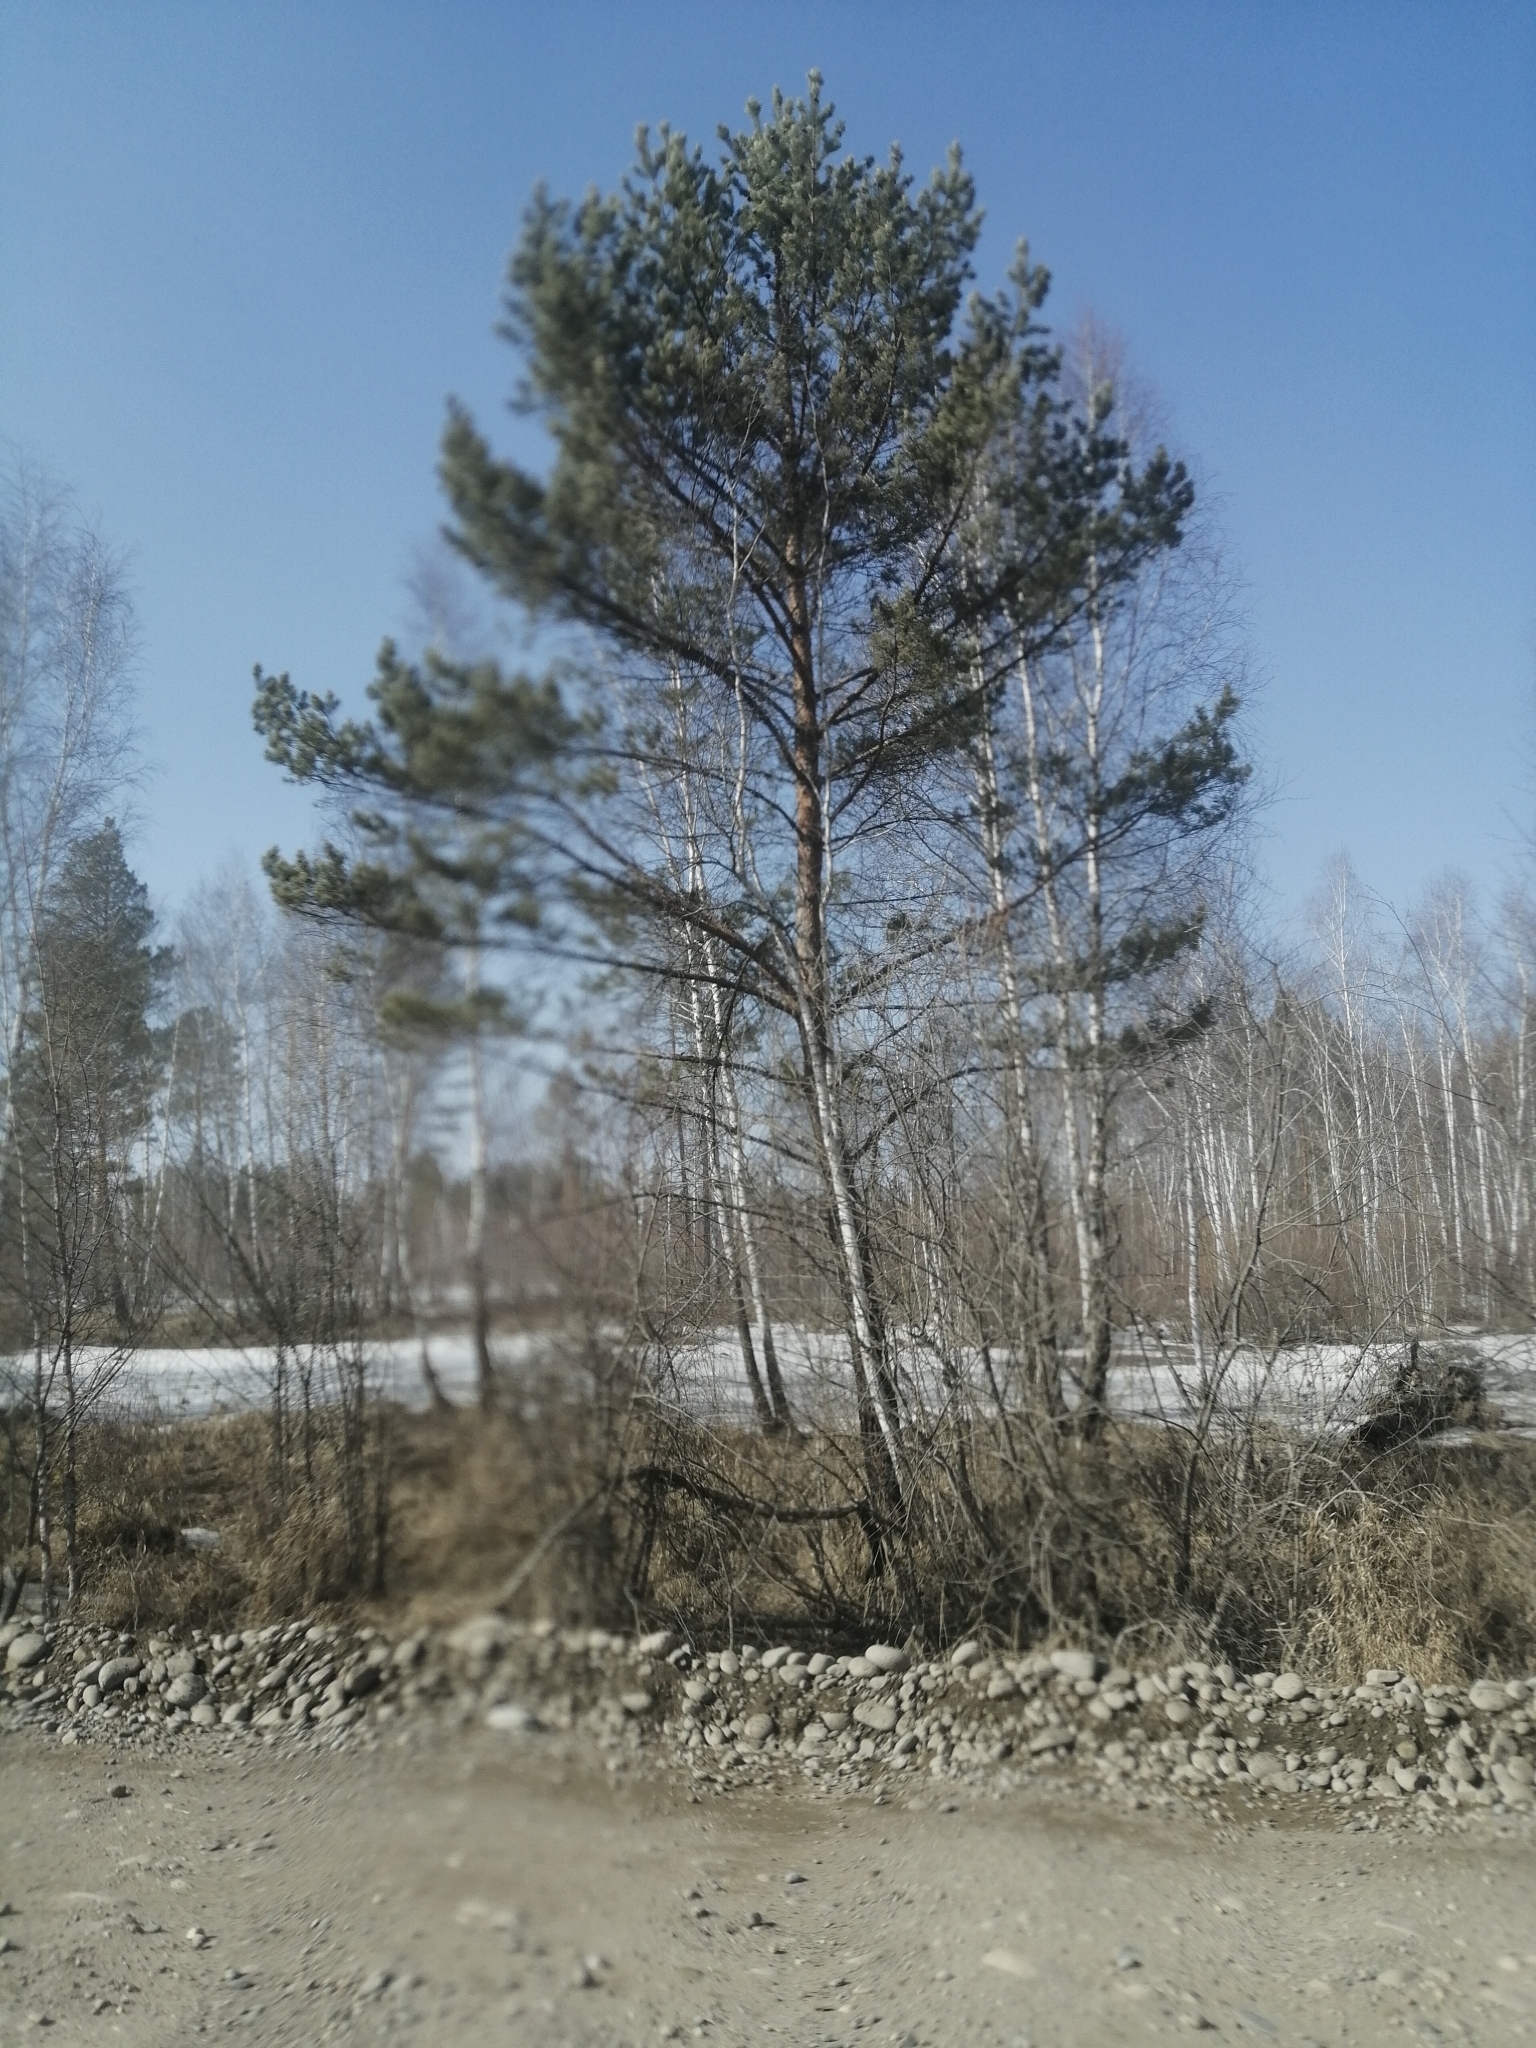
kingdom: Plantae
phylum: Tracheophyta
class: Pinopsida
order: Pinales
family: Pinaceae
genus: Pinus
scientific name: Pinus sylvestris
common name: Scots pine
